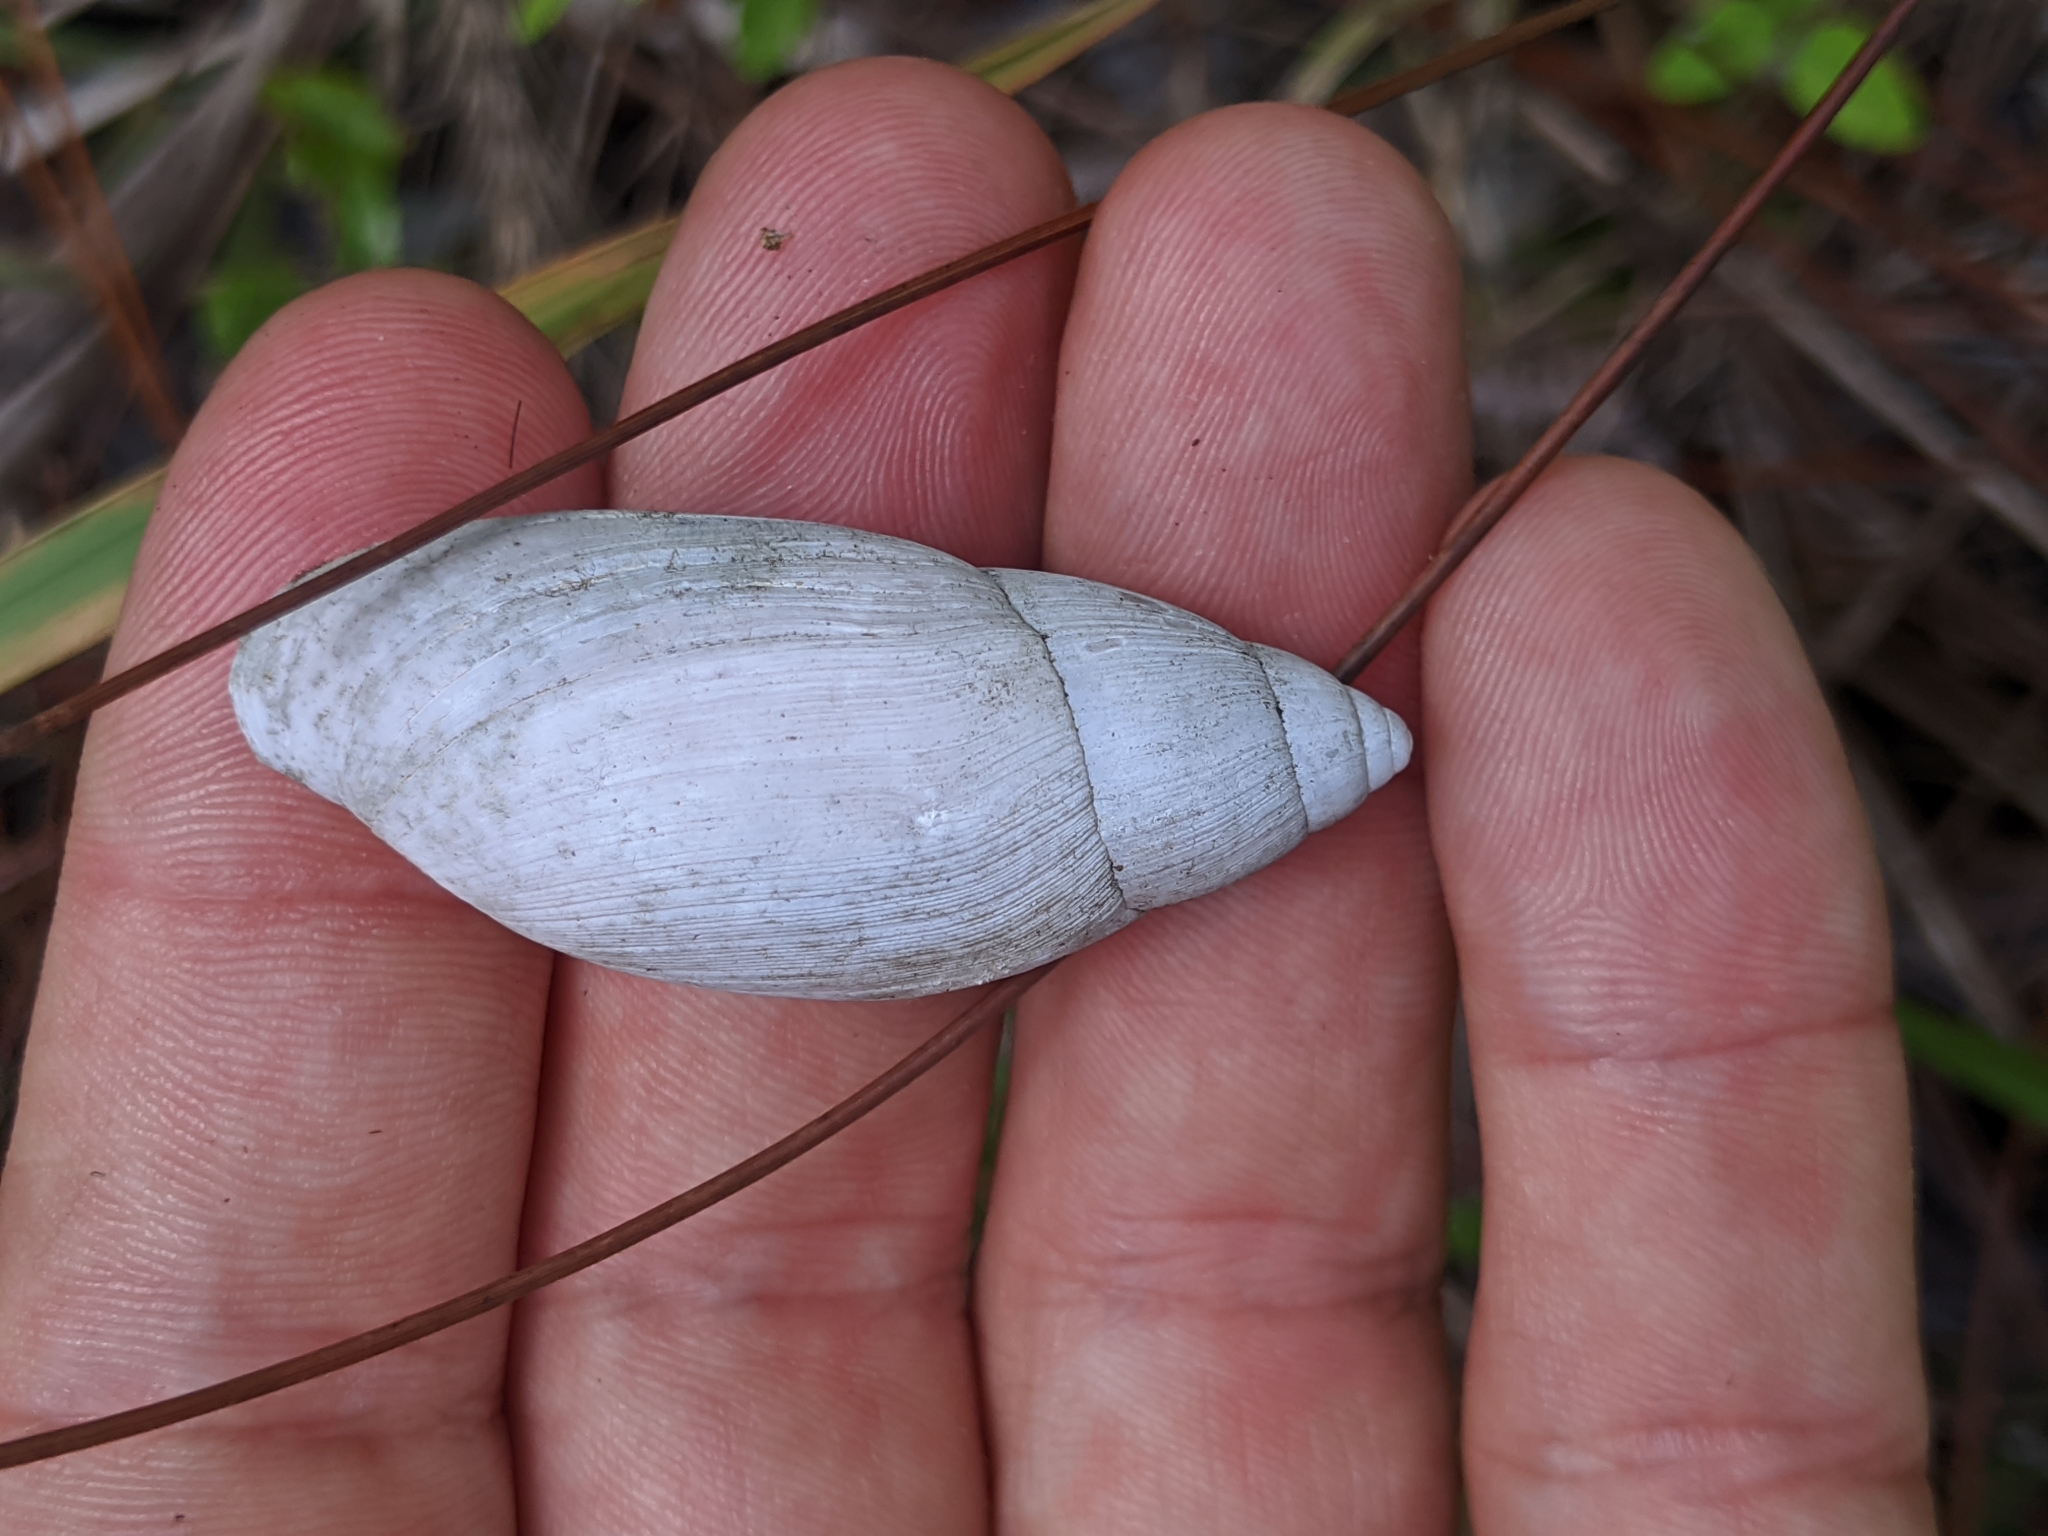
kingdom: Animalia
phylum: Mollusca
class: Gastropoda
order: Stylommatophora
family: Spiraxidae
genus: Euglandina
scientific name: Euglandina rosea
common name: Rosy wolfsnail
